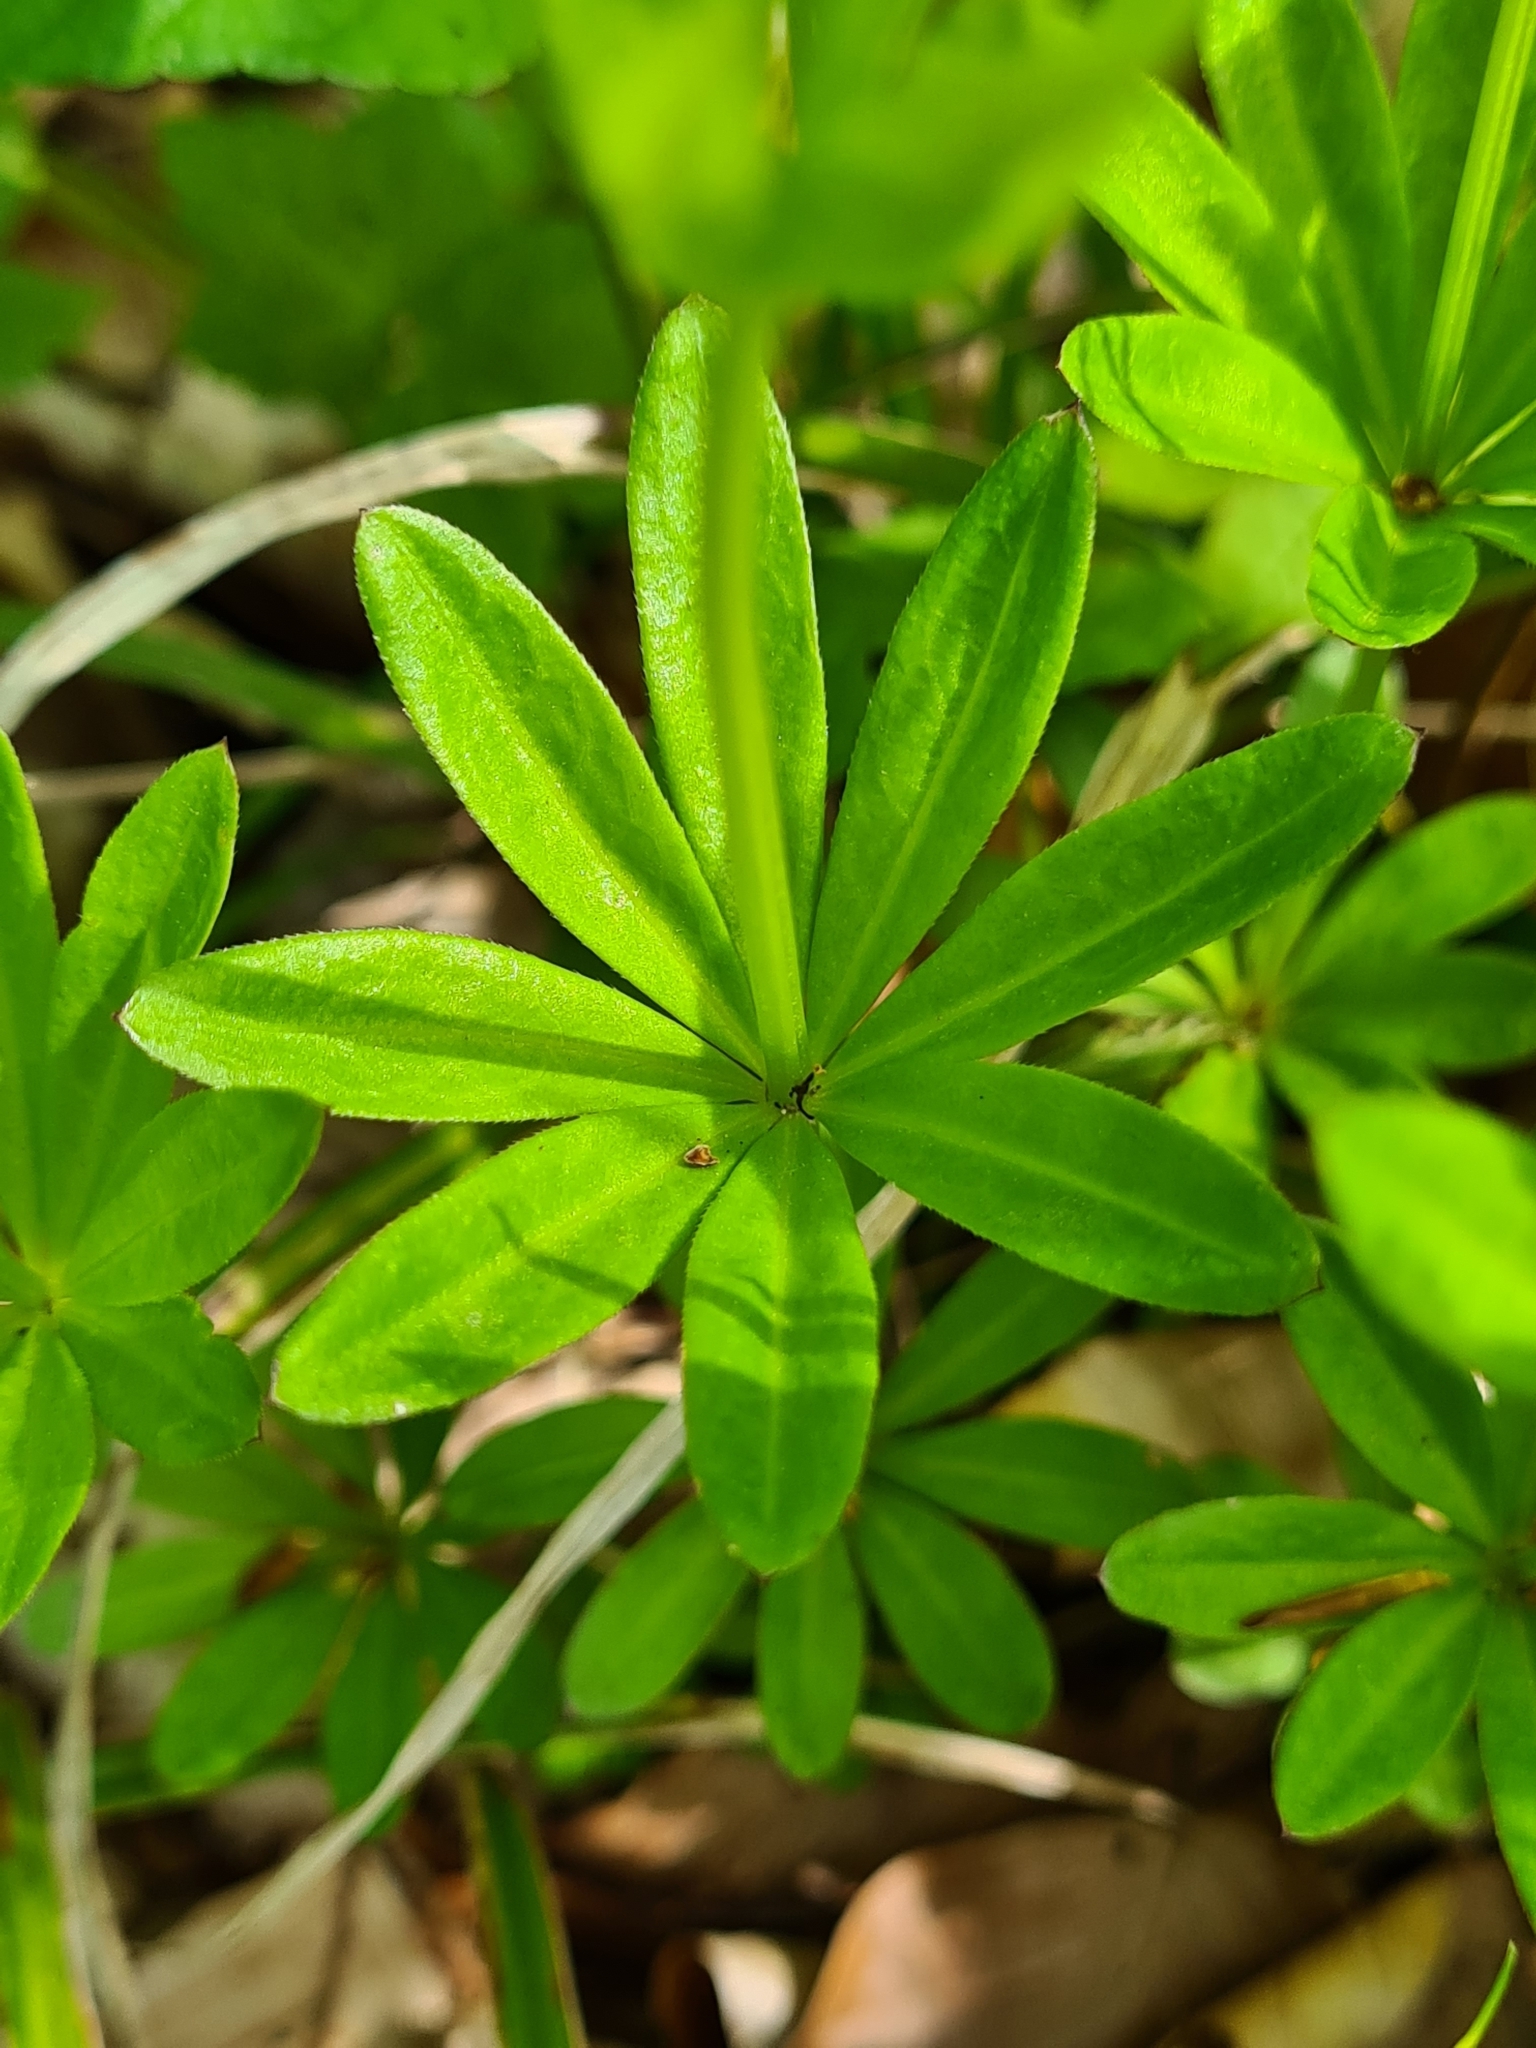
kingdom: Plantae
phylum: Tracheophyta
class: Magnoliopsida
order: Gentianales
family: Rubiaceae
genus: Galium
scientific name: Galium odoratum
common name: Sweet woodruff
